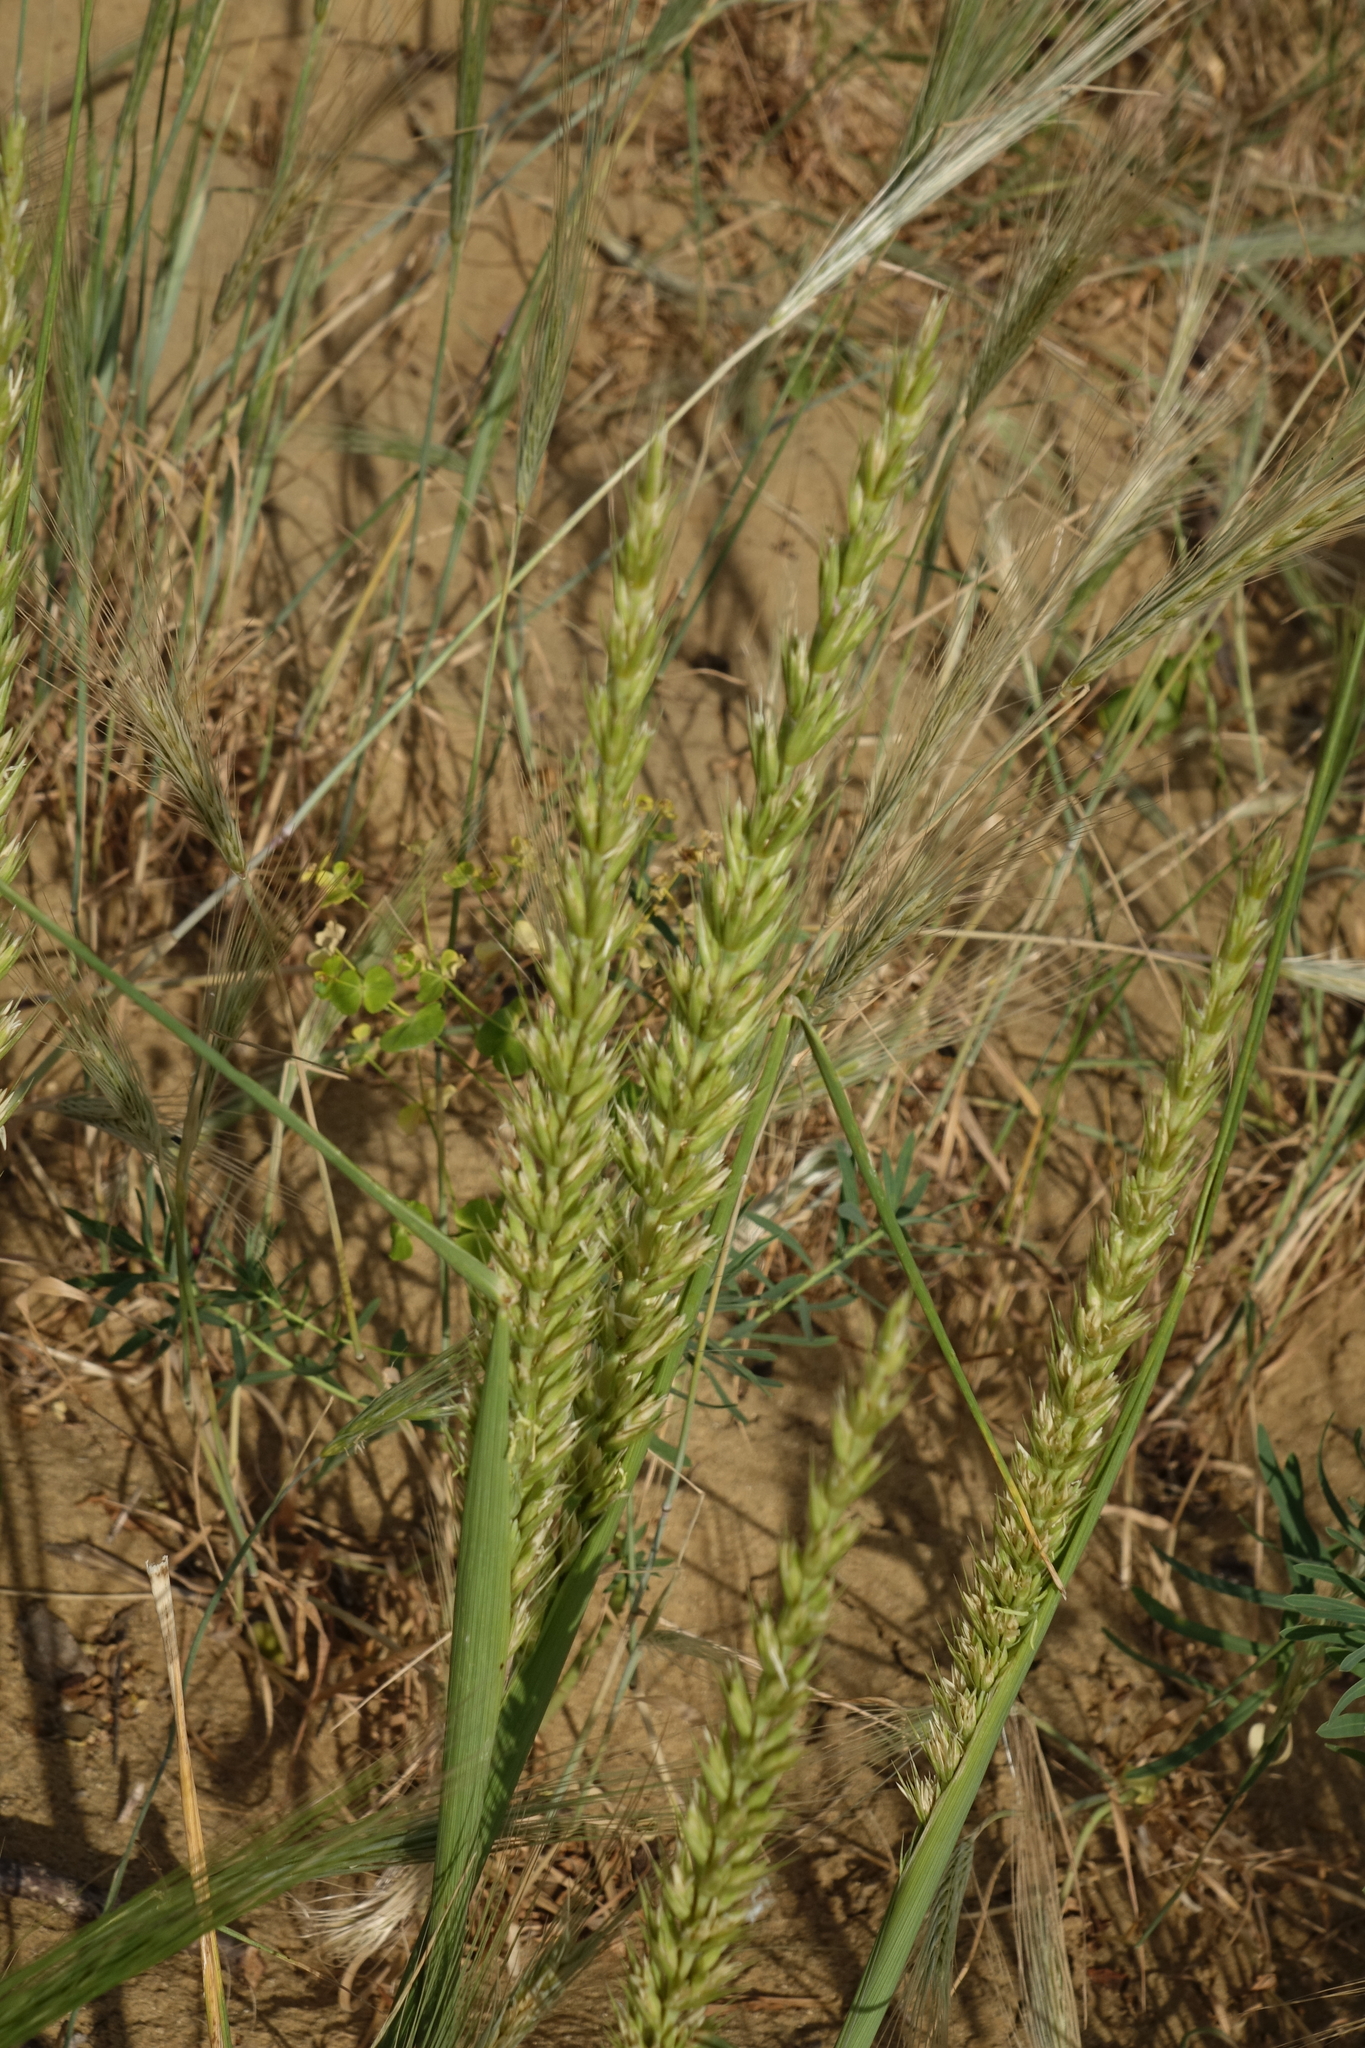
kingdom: Plantae
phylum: Tracheophyta
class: Liliopsida
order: Poales
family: Poaceae
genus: Leymus
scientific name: Leymus racemosus
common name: Mammoth wildrye
